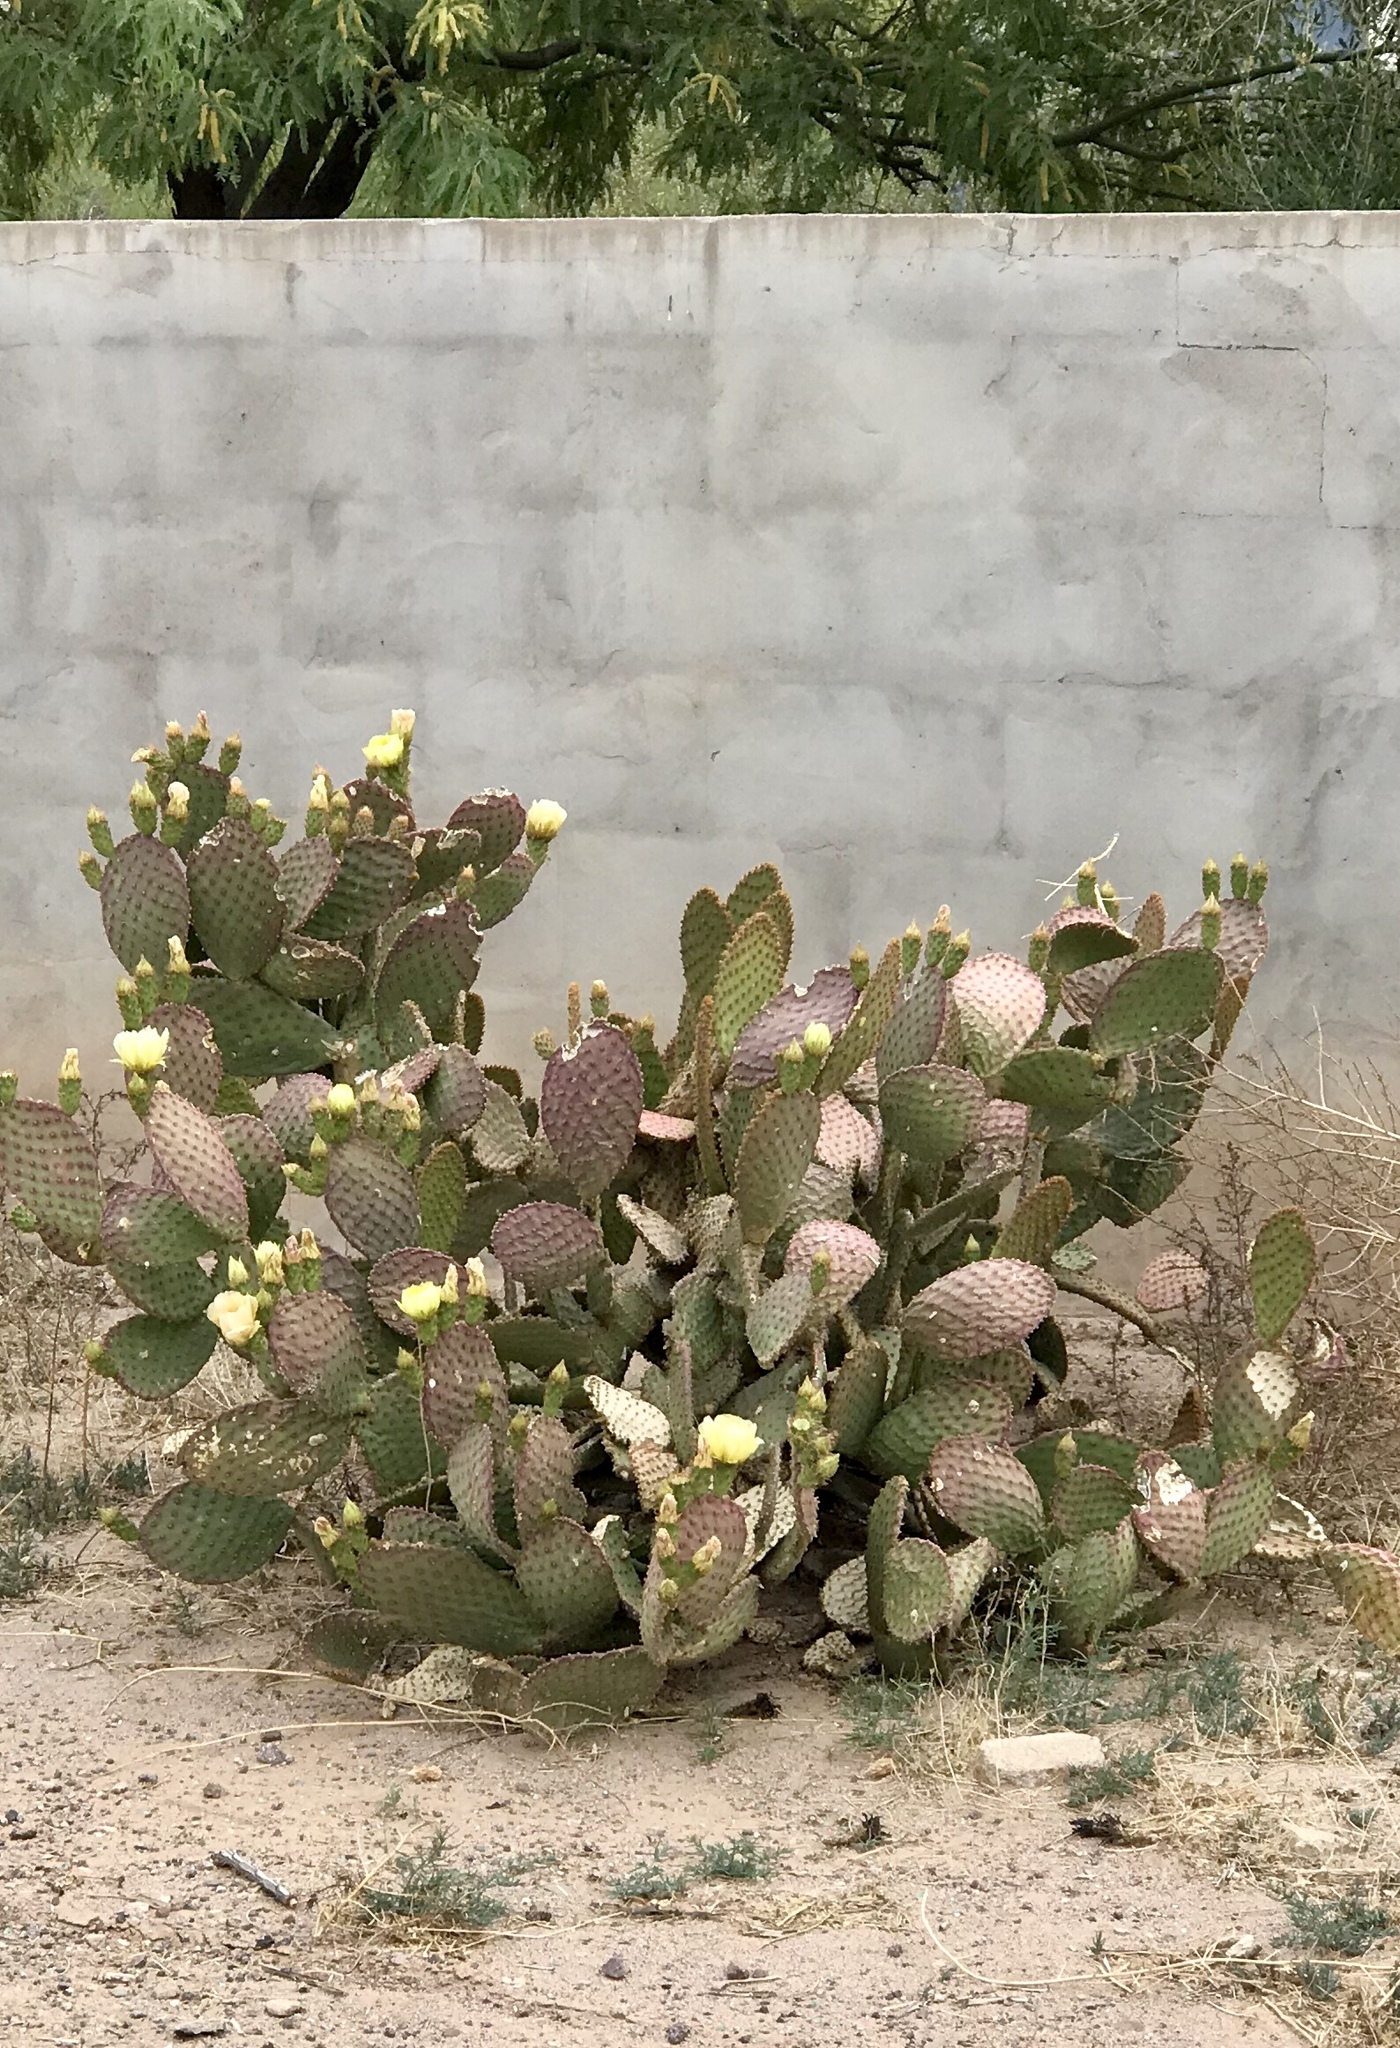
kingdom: Plantae
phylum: Tracheophyta
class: Magnoliopsida
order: Caryophyllales
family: Cactaceae
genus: Opuntia
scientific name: Opuntia microdasys
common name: Angel's-wings
